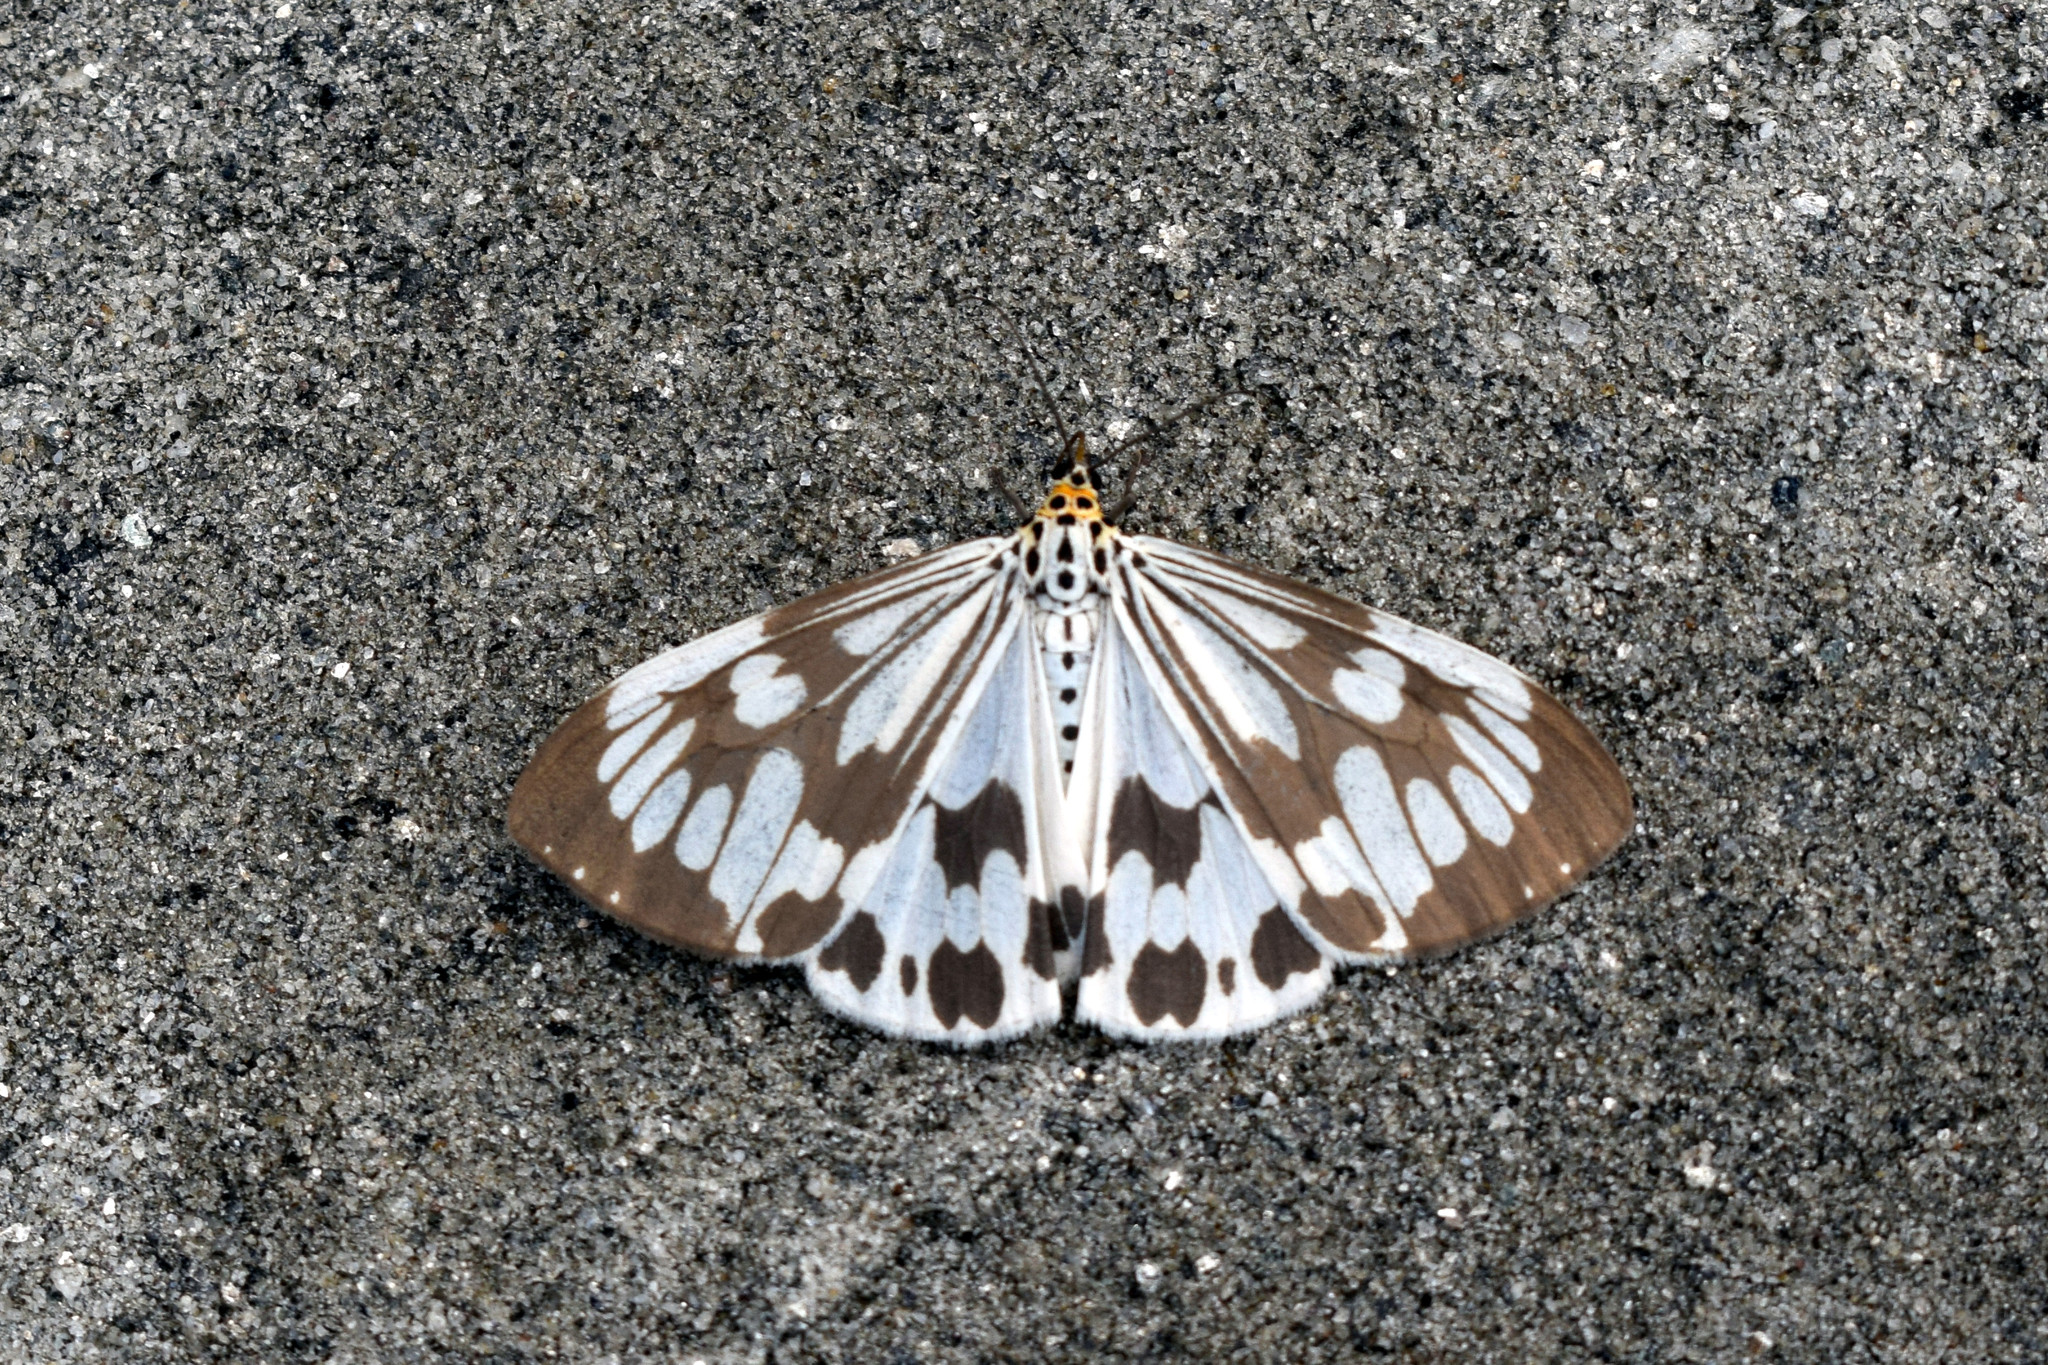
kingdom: Animalia
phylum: Arthropoda
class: Insecta
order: Lepidoptera
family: Erebidae
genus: Nyctemera
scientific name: Nyctemera adversata
